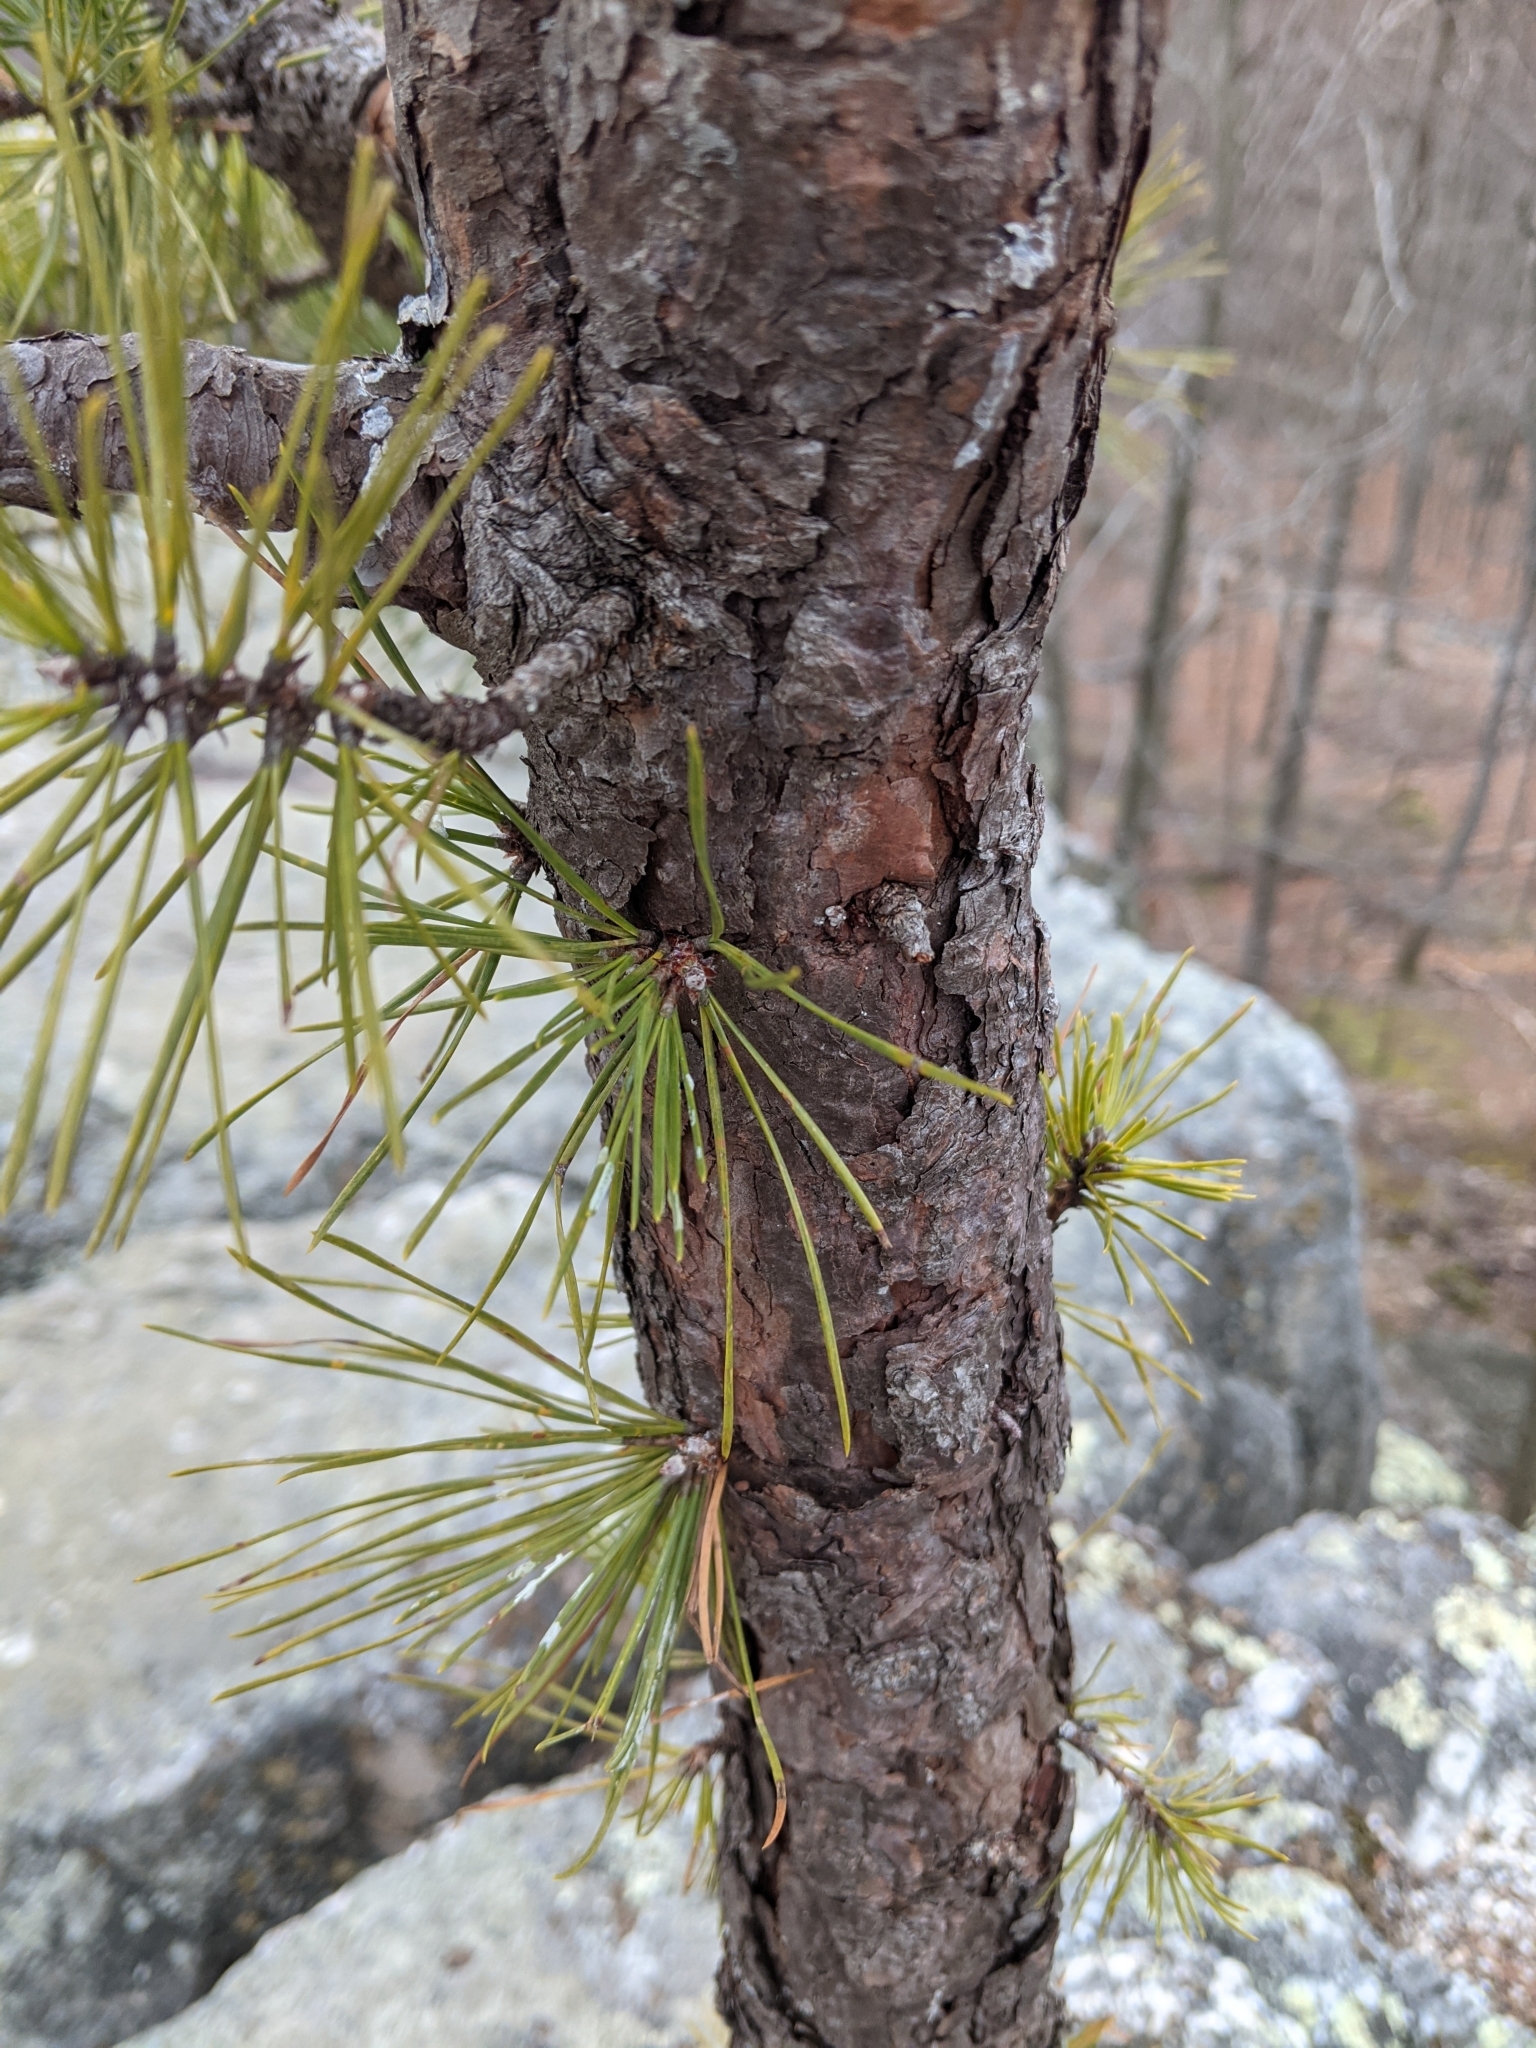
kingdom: Plantae
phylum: Tracheophyta
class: Pinopsida
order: Pinales
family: Pinaceae
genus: Pinus
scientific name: Pinus rigida
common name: Pitch pine
